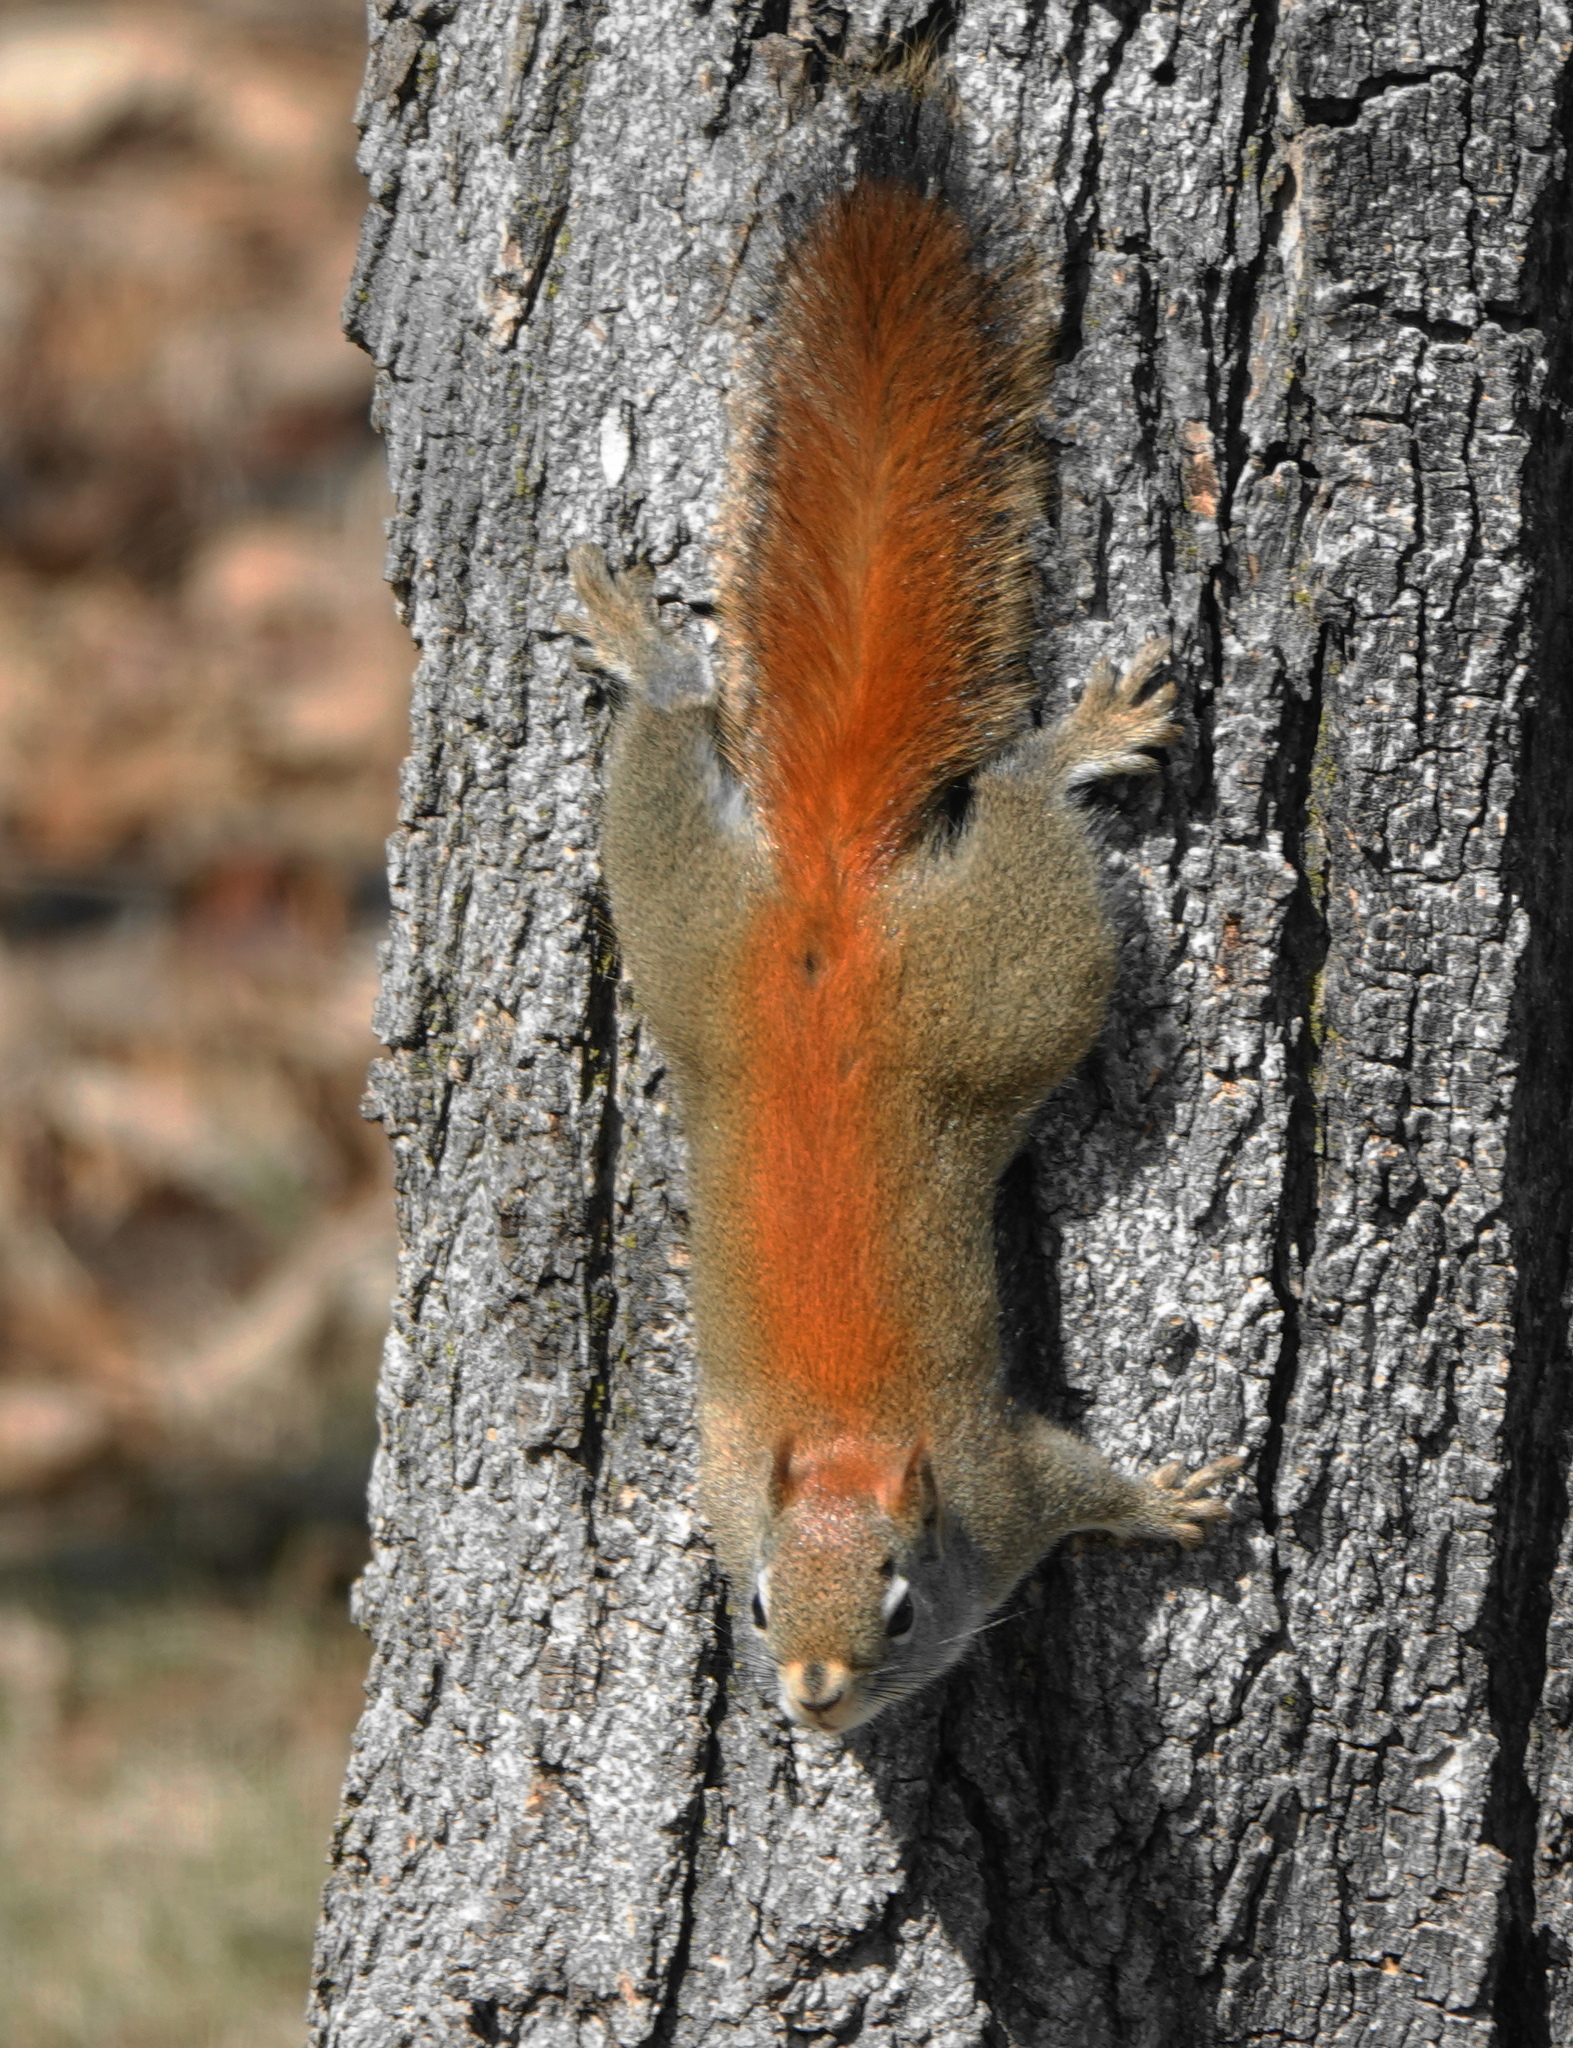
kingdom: Animalia
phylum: Chordata
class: Mammalia
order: Rodentia
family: Sciuridae
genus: Tamiasciurus
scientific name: Tamiasciurus hudsonicus
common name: Red squirrel
